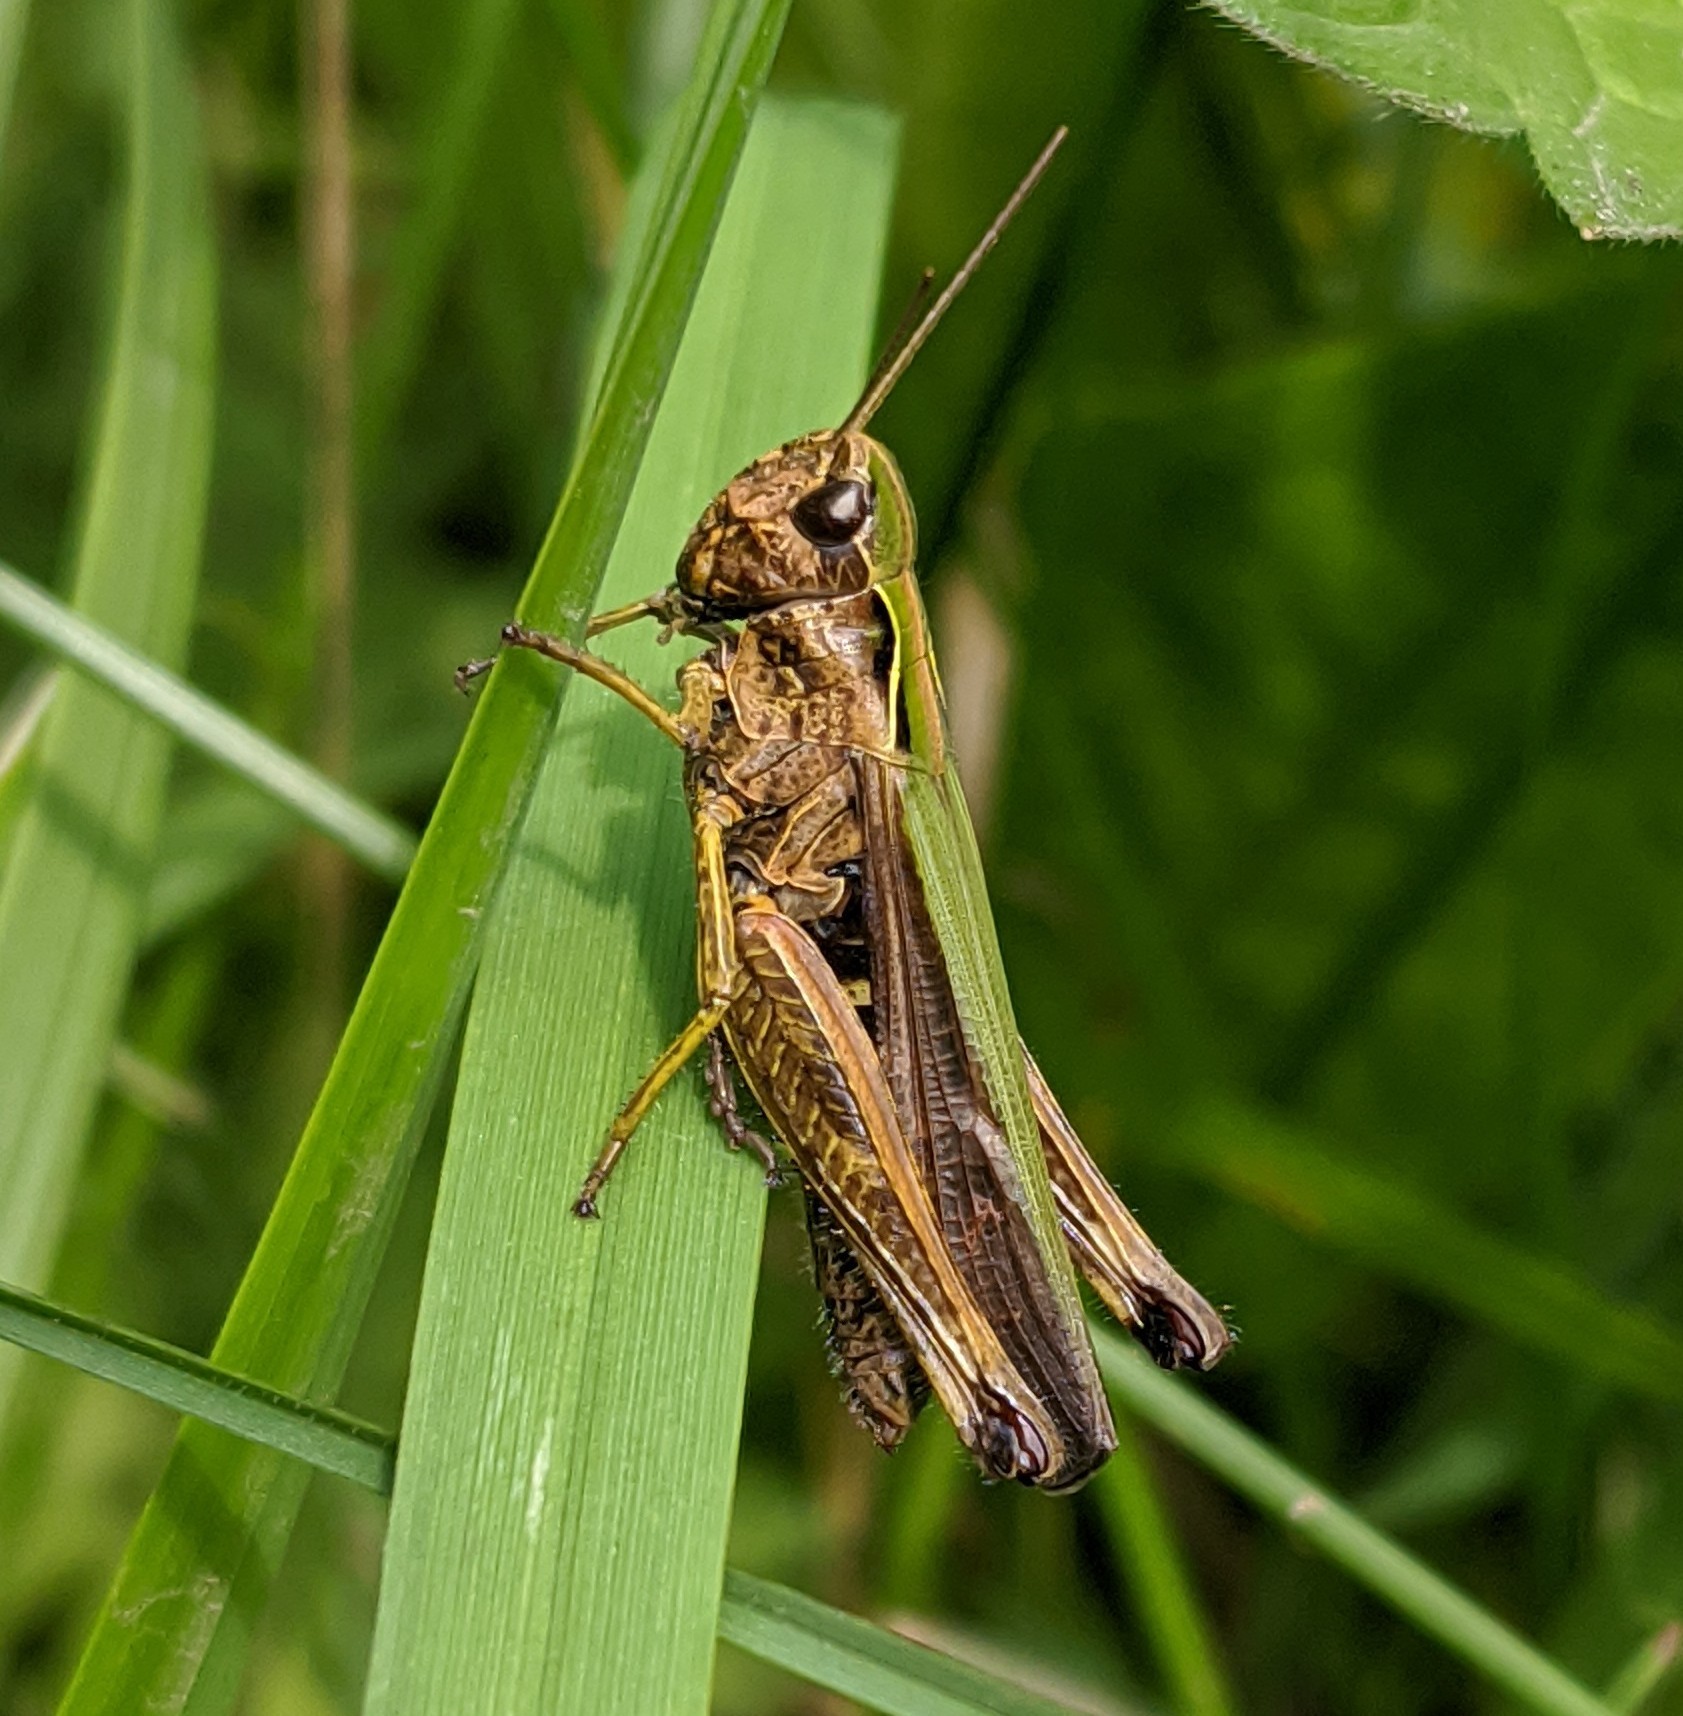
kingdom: Animalia
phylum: Arthropoda
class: Insecta
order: Orthoptera
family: Acrididae
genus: Omocestus
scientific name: Omocestus viridulus
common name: Common green grasshopper
